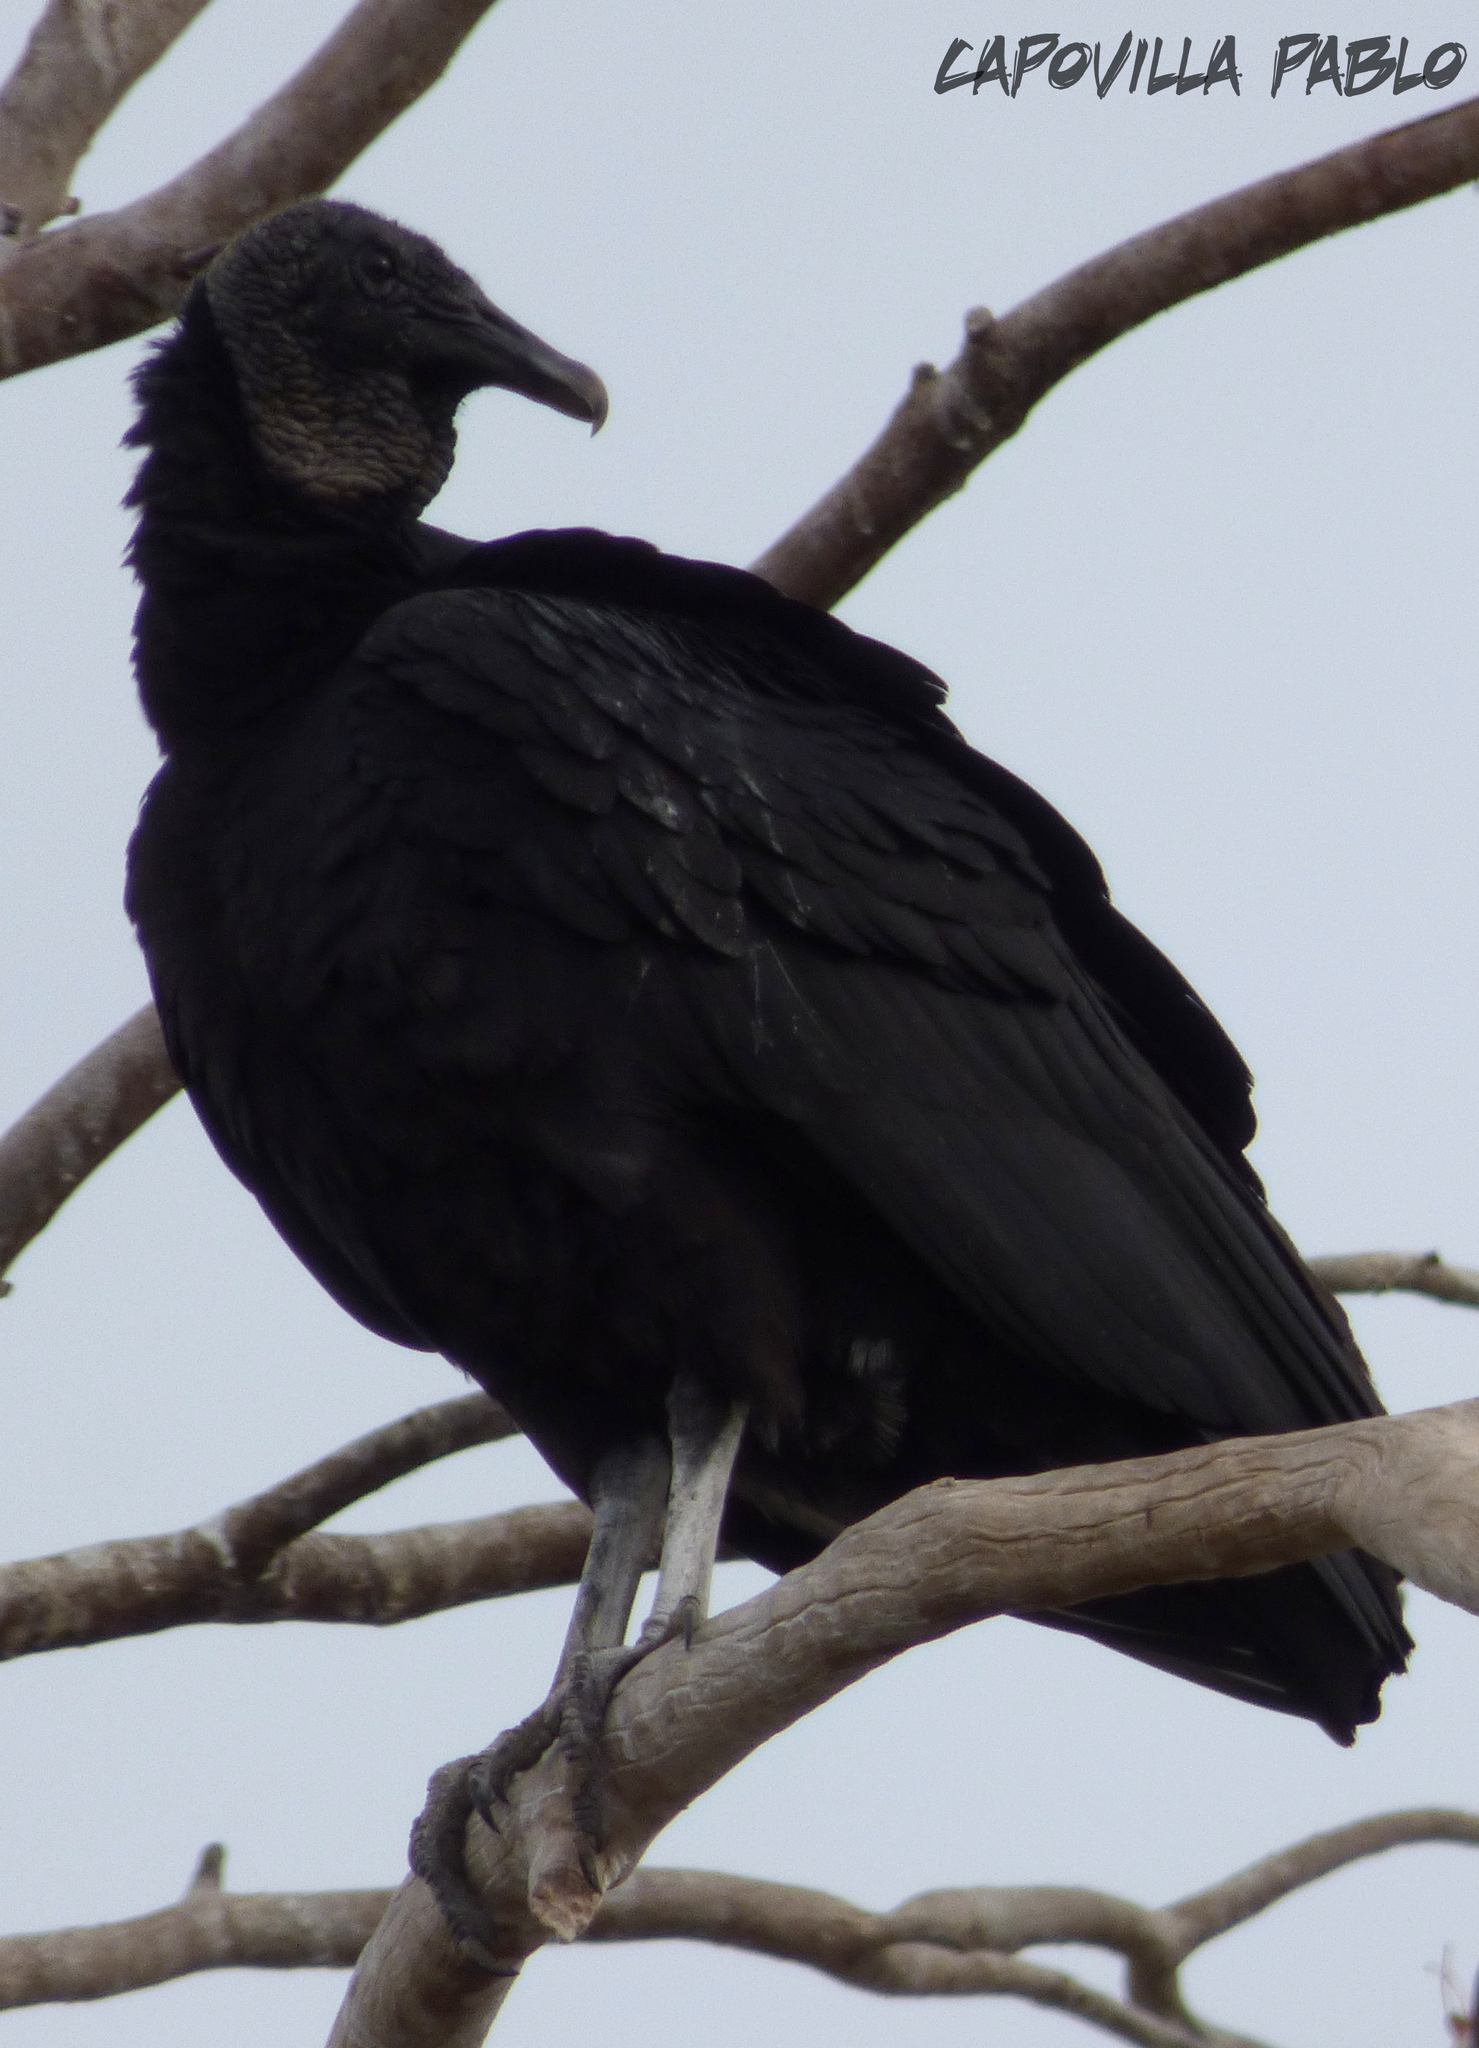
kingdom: Animalia
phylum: Chordata
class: Aves
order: Accipitriformes
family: Cathartidae
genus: Coragyps
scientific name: Coragyps atratus
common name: Black vulture
